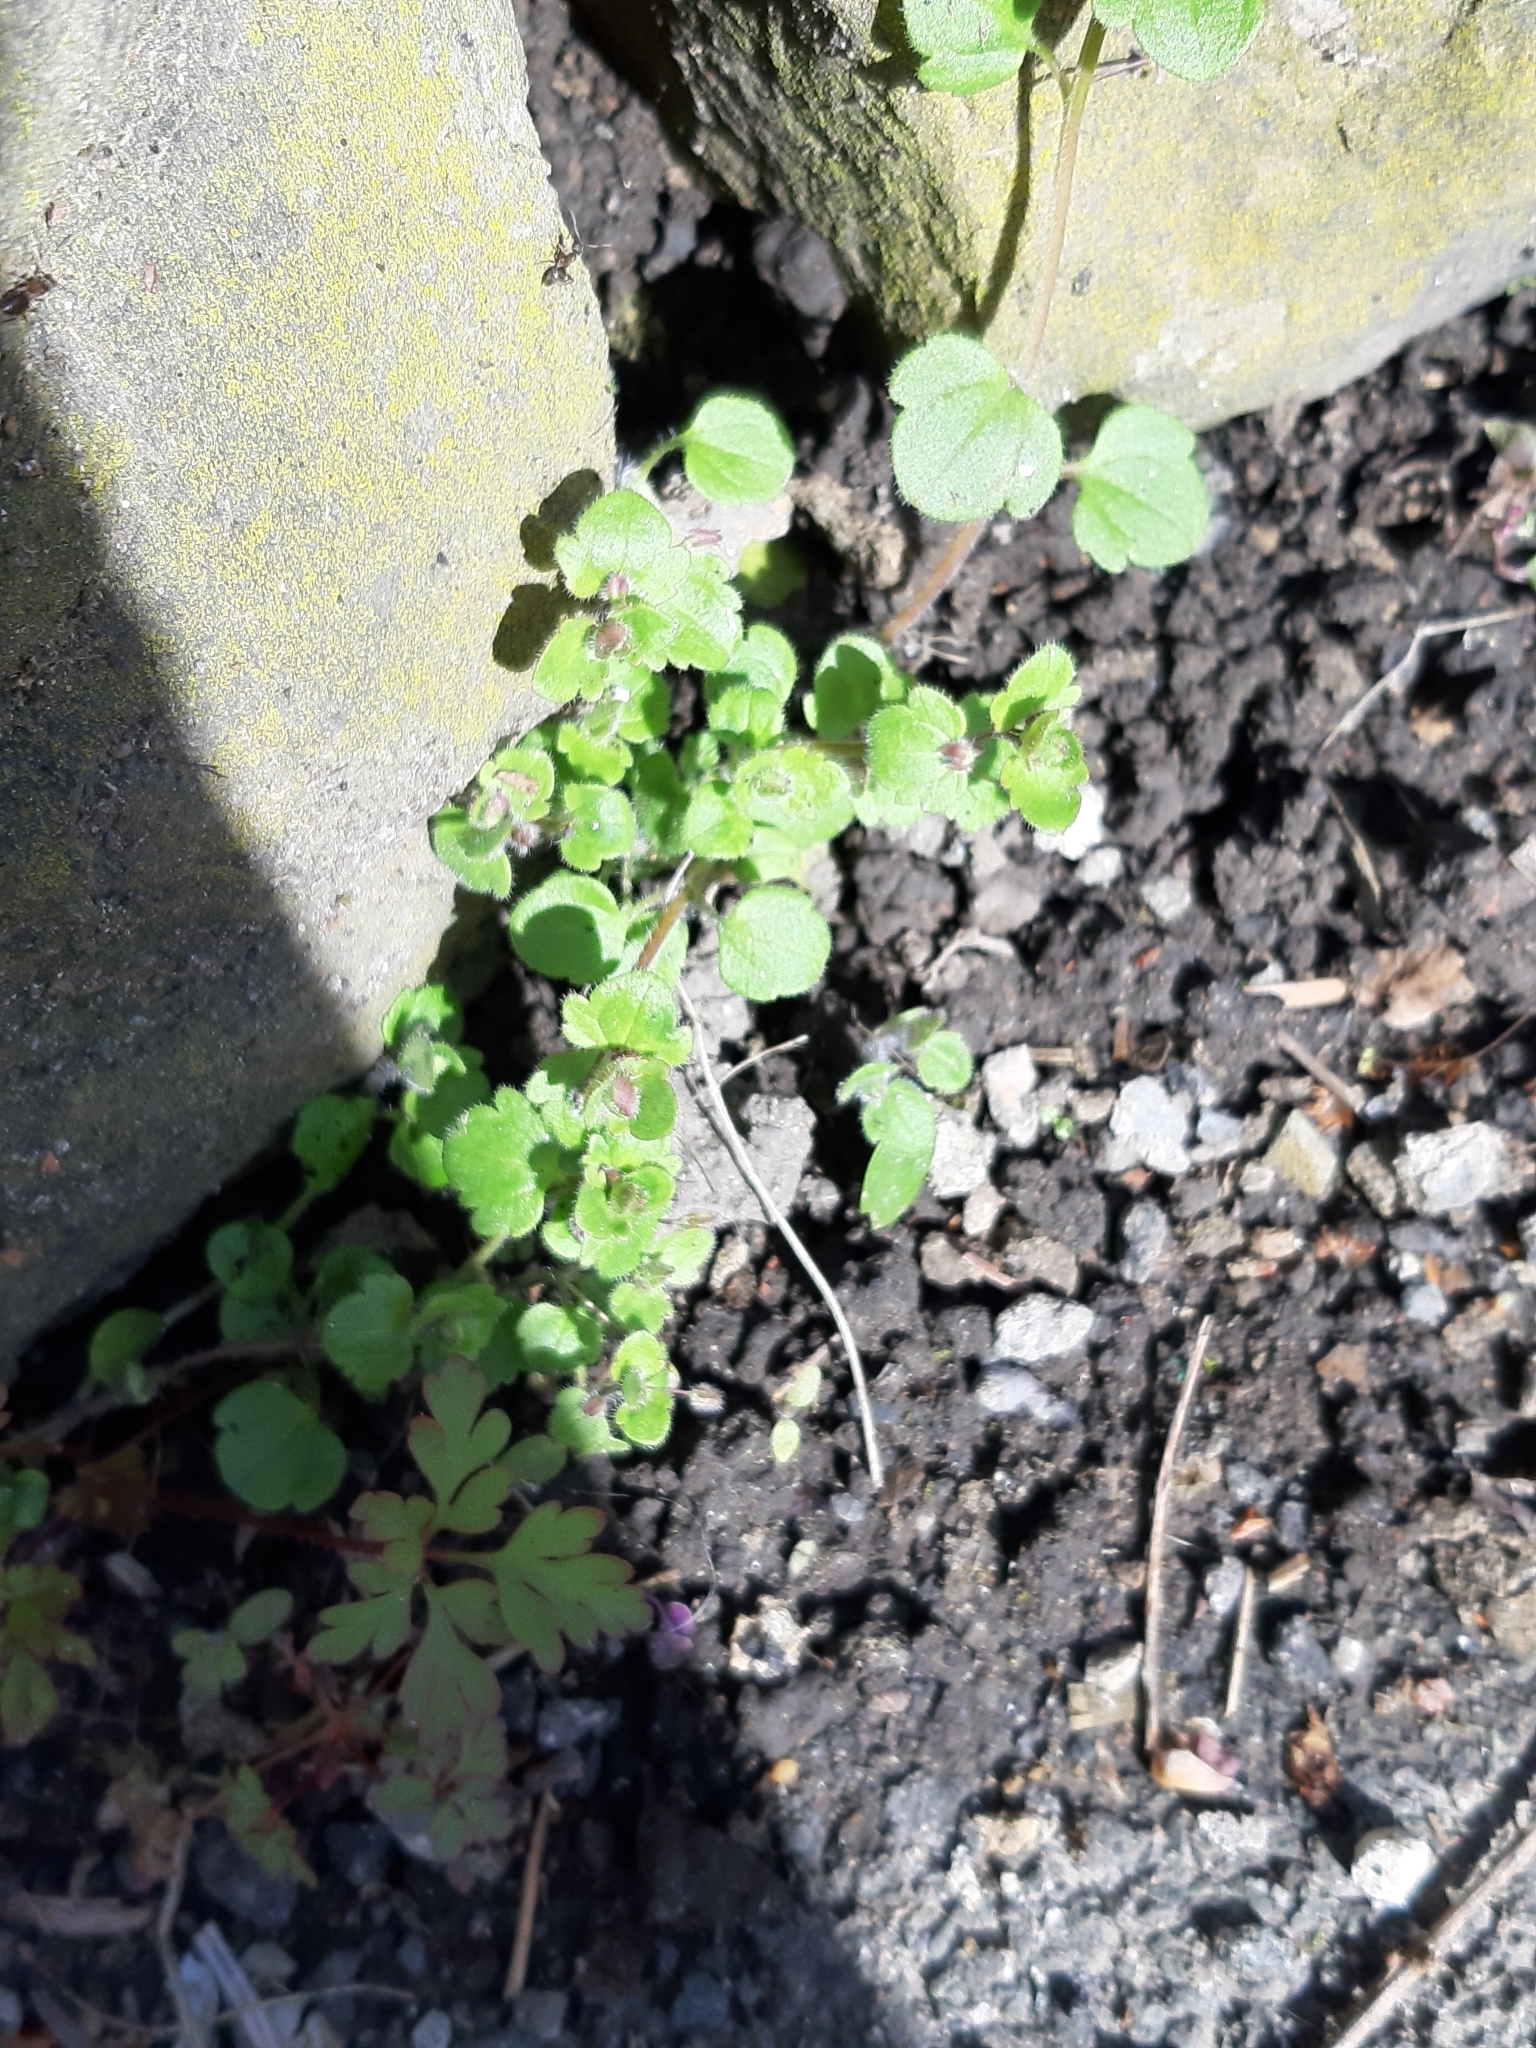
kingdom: Plantae
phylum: Tracheophyta
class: Magnoliopsida
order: Lamiales
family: Plantaginaceae
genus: Veronica
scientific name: Veronica hederifolia
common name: Ivy-leaved speedwell
